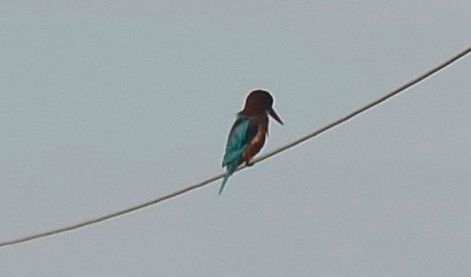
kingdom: Animalia
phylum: Chordata
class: Aves
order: Coraciiformes
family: Alcedinidae
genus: Halcyon
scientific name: Halcyon smyrnensis
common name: White-throated kingfisher
